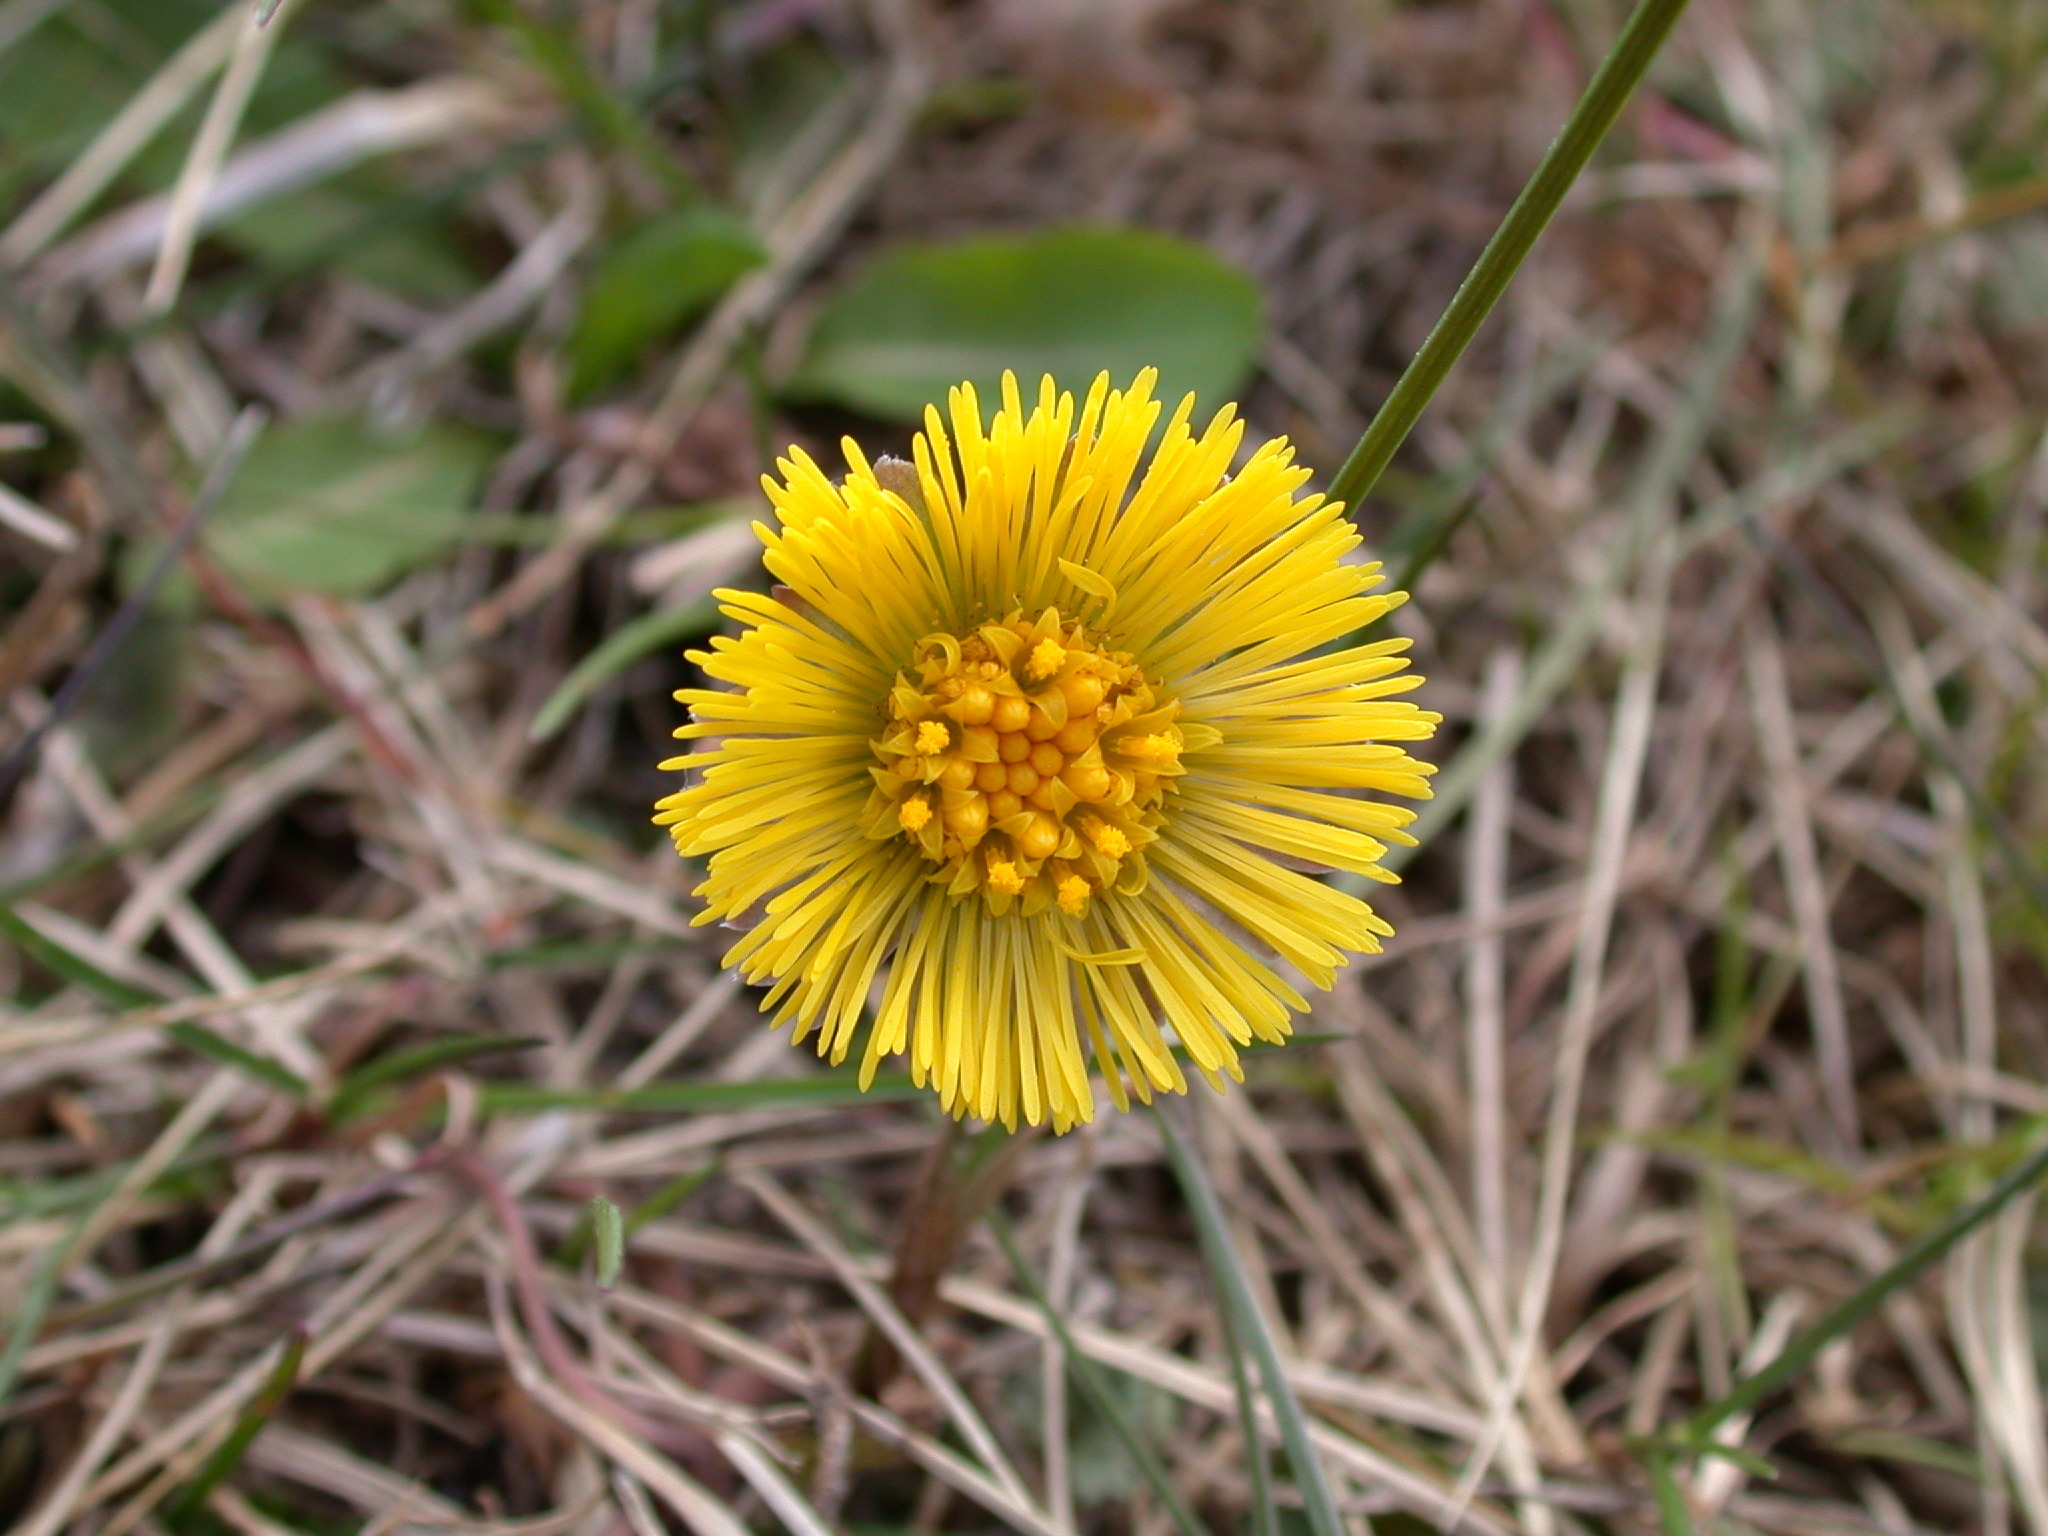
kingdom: Plantae
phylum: Tracheophyta
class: Magnoliopsida
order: Asterales
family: Asteraceae
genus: Tussilago
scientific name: Tussilago farfara
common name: Coltsfoot
